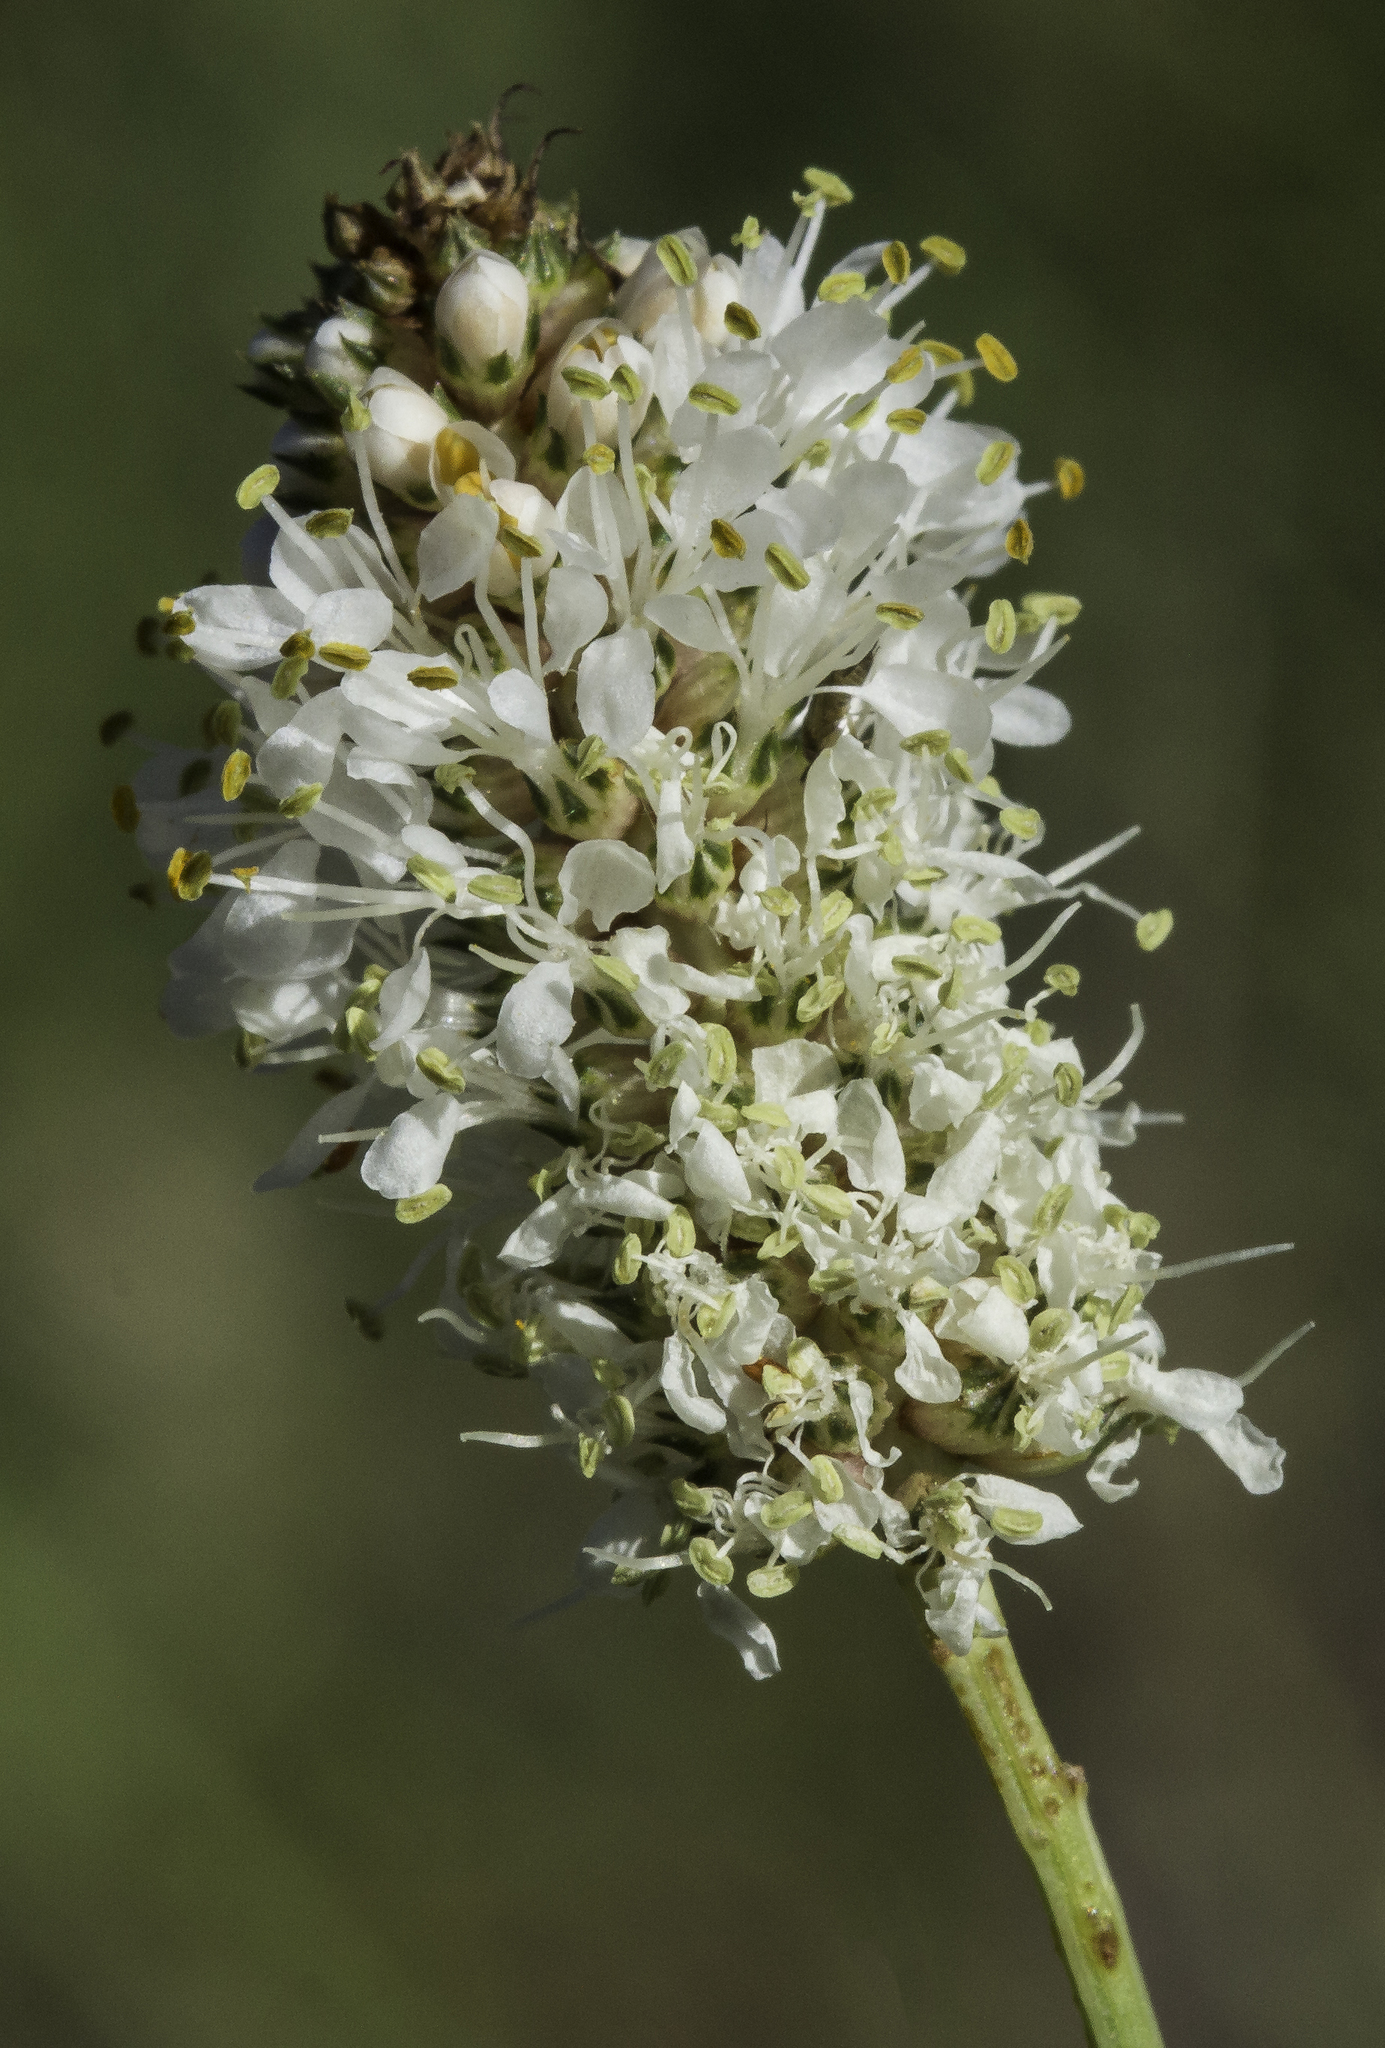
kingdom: Plantae
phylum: Tracheophyta
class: Magnoliopsida
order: Fabales
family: Fabaceae
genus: Dalea
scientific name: Dalea candida
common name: White prairie-clover
